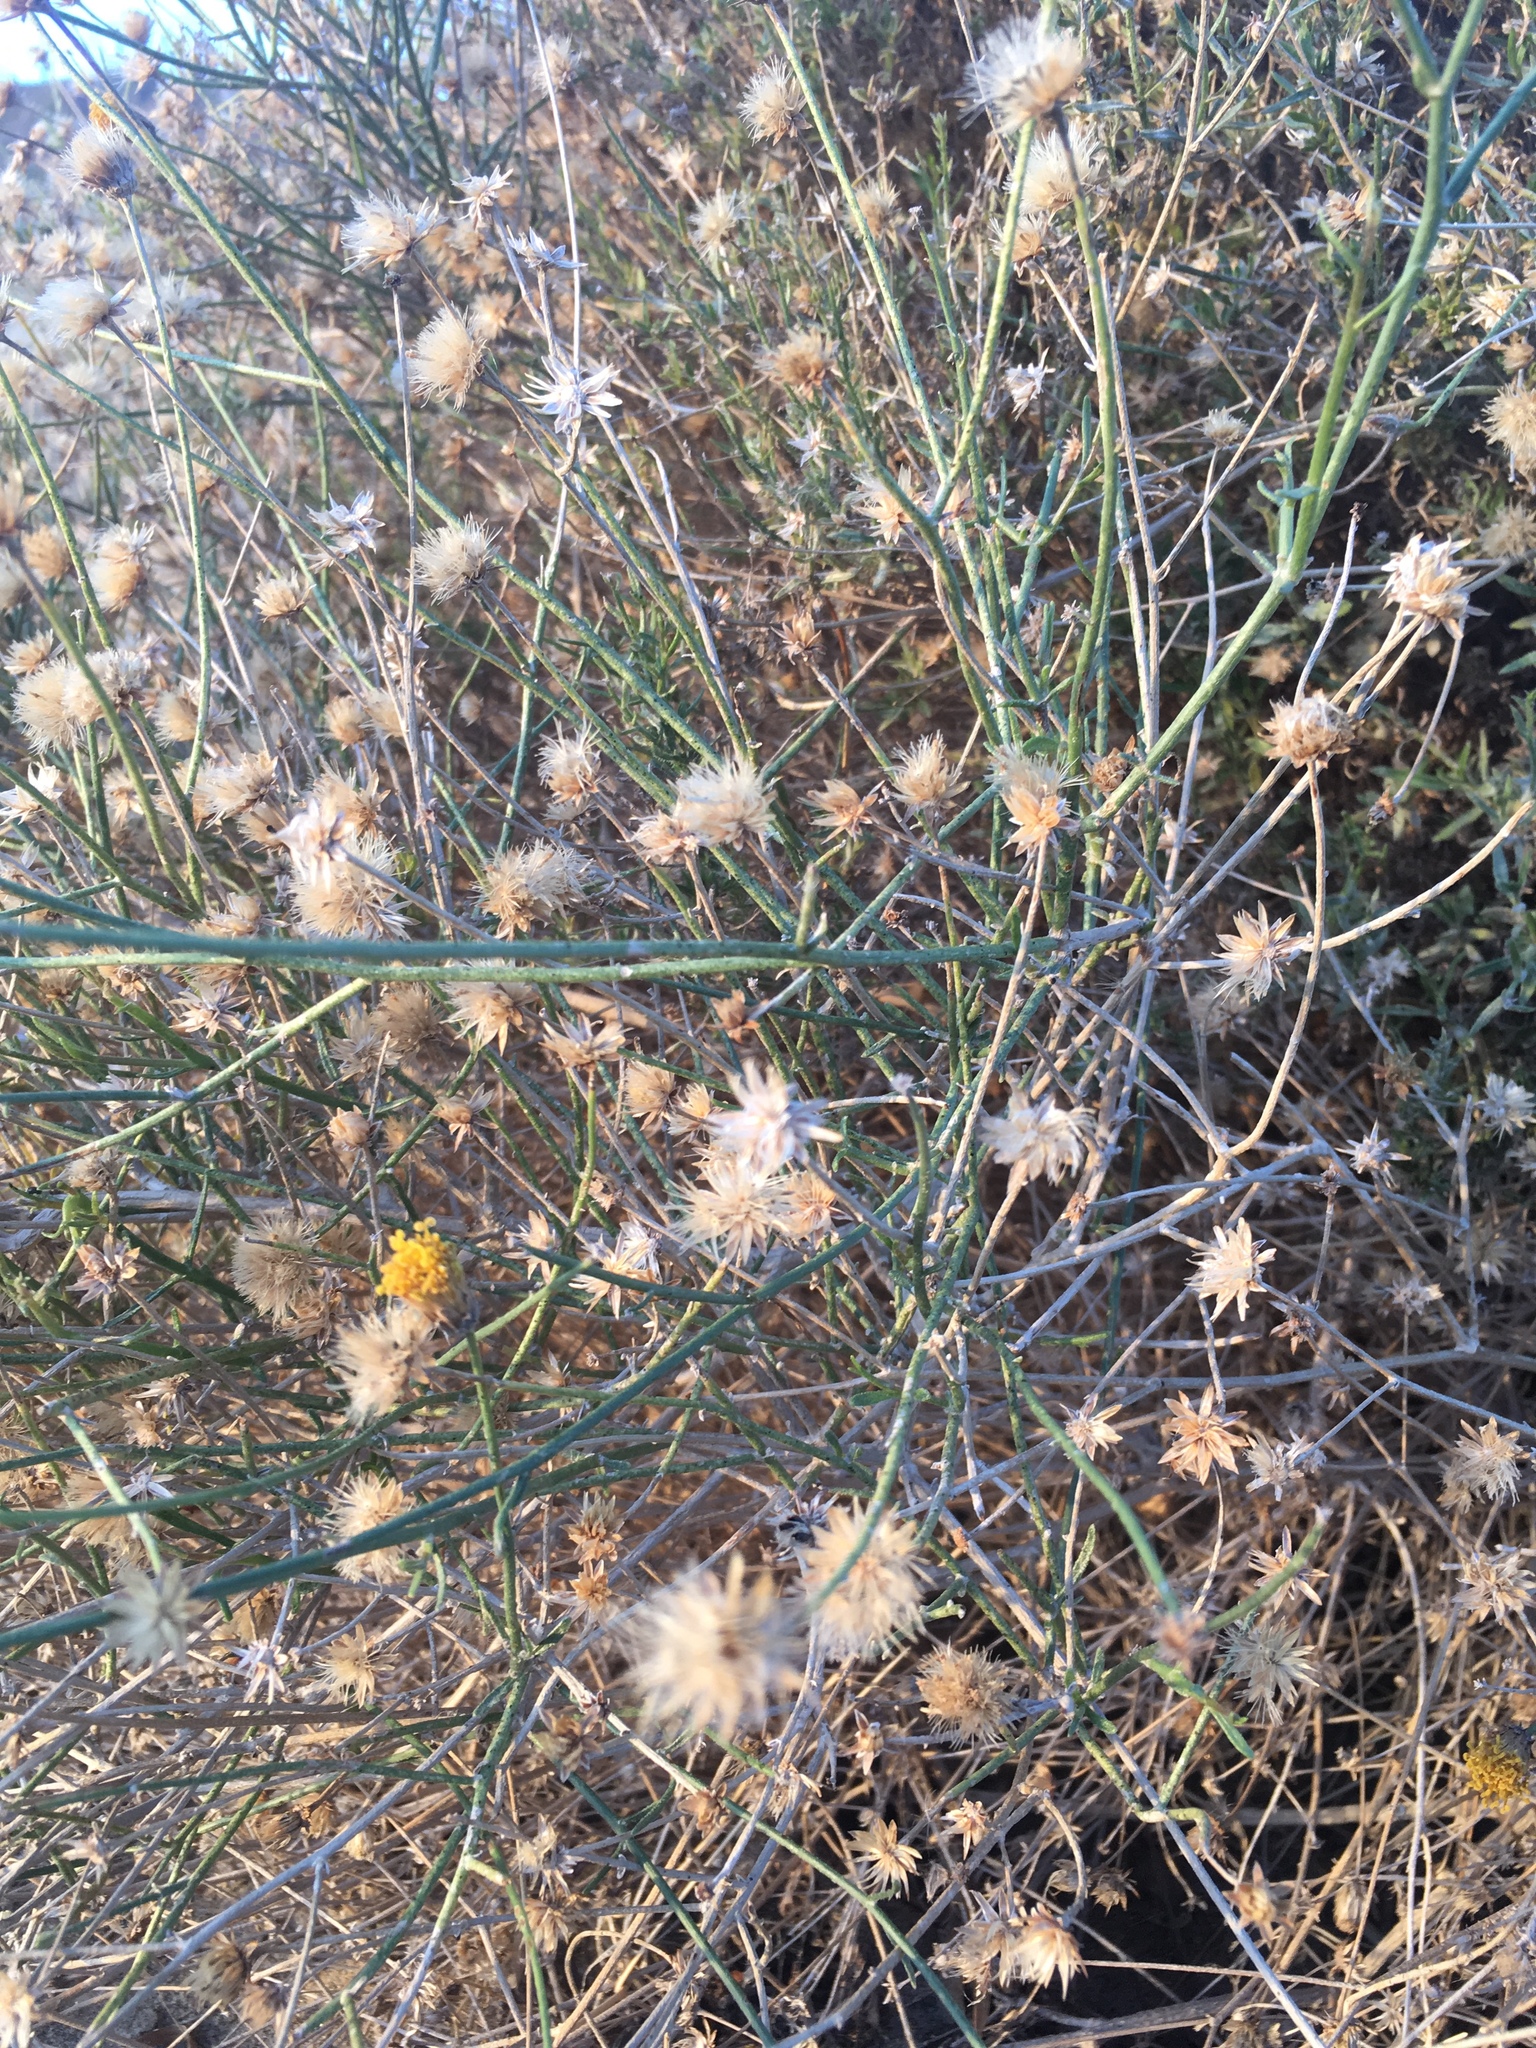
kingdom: Plantae
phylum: Tracheophyta
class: Magnoliopsida
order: Asterales
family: Asteraceae
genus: Bebbia
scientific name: Bebbia juncea
